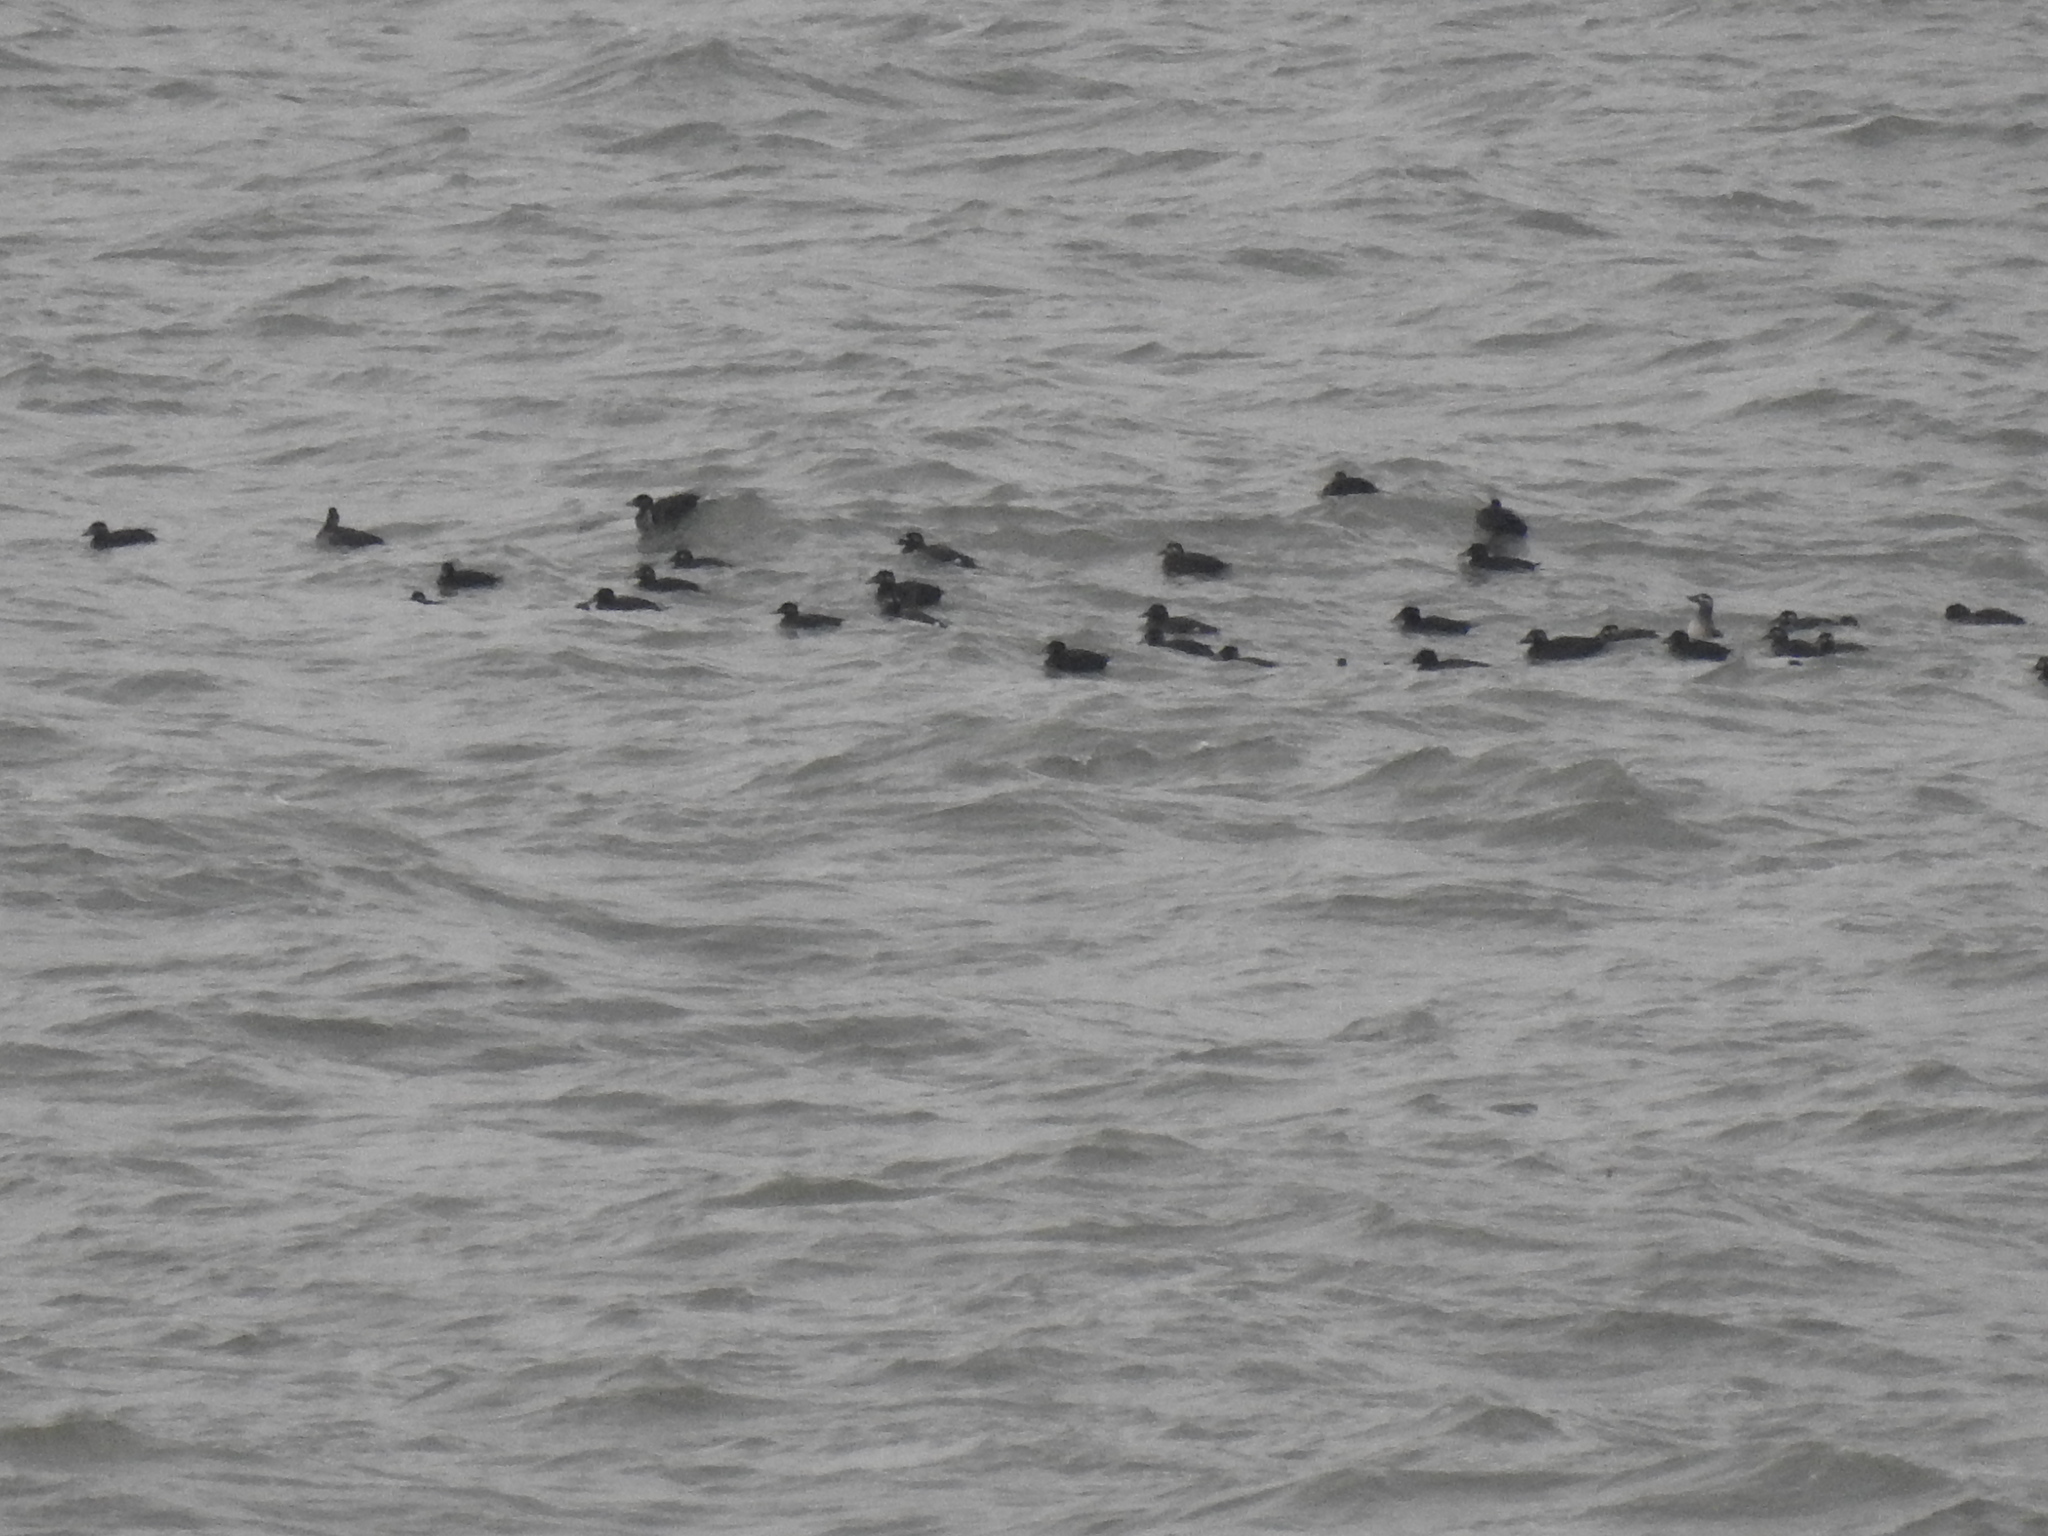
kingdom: Animalia
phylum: Chordata
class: Aves
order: Anseriformes
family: Anatidae
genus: Melanitta
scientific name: Melanitta deglandi
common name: White-winged scoter
